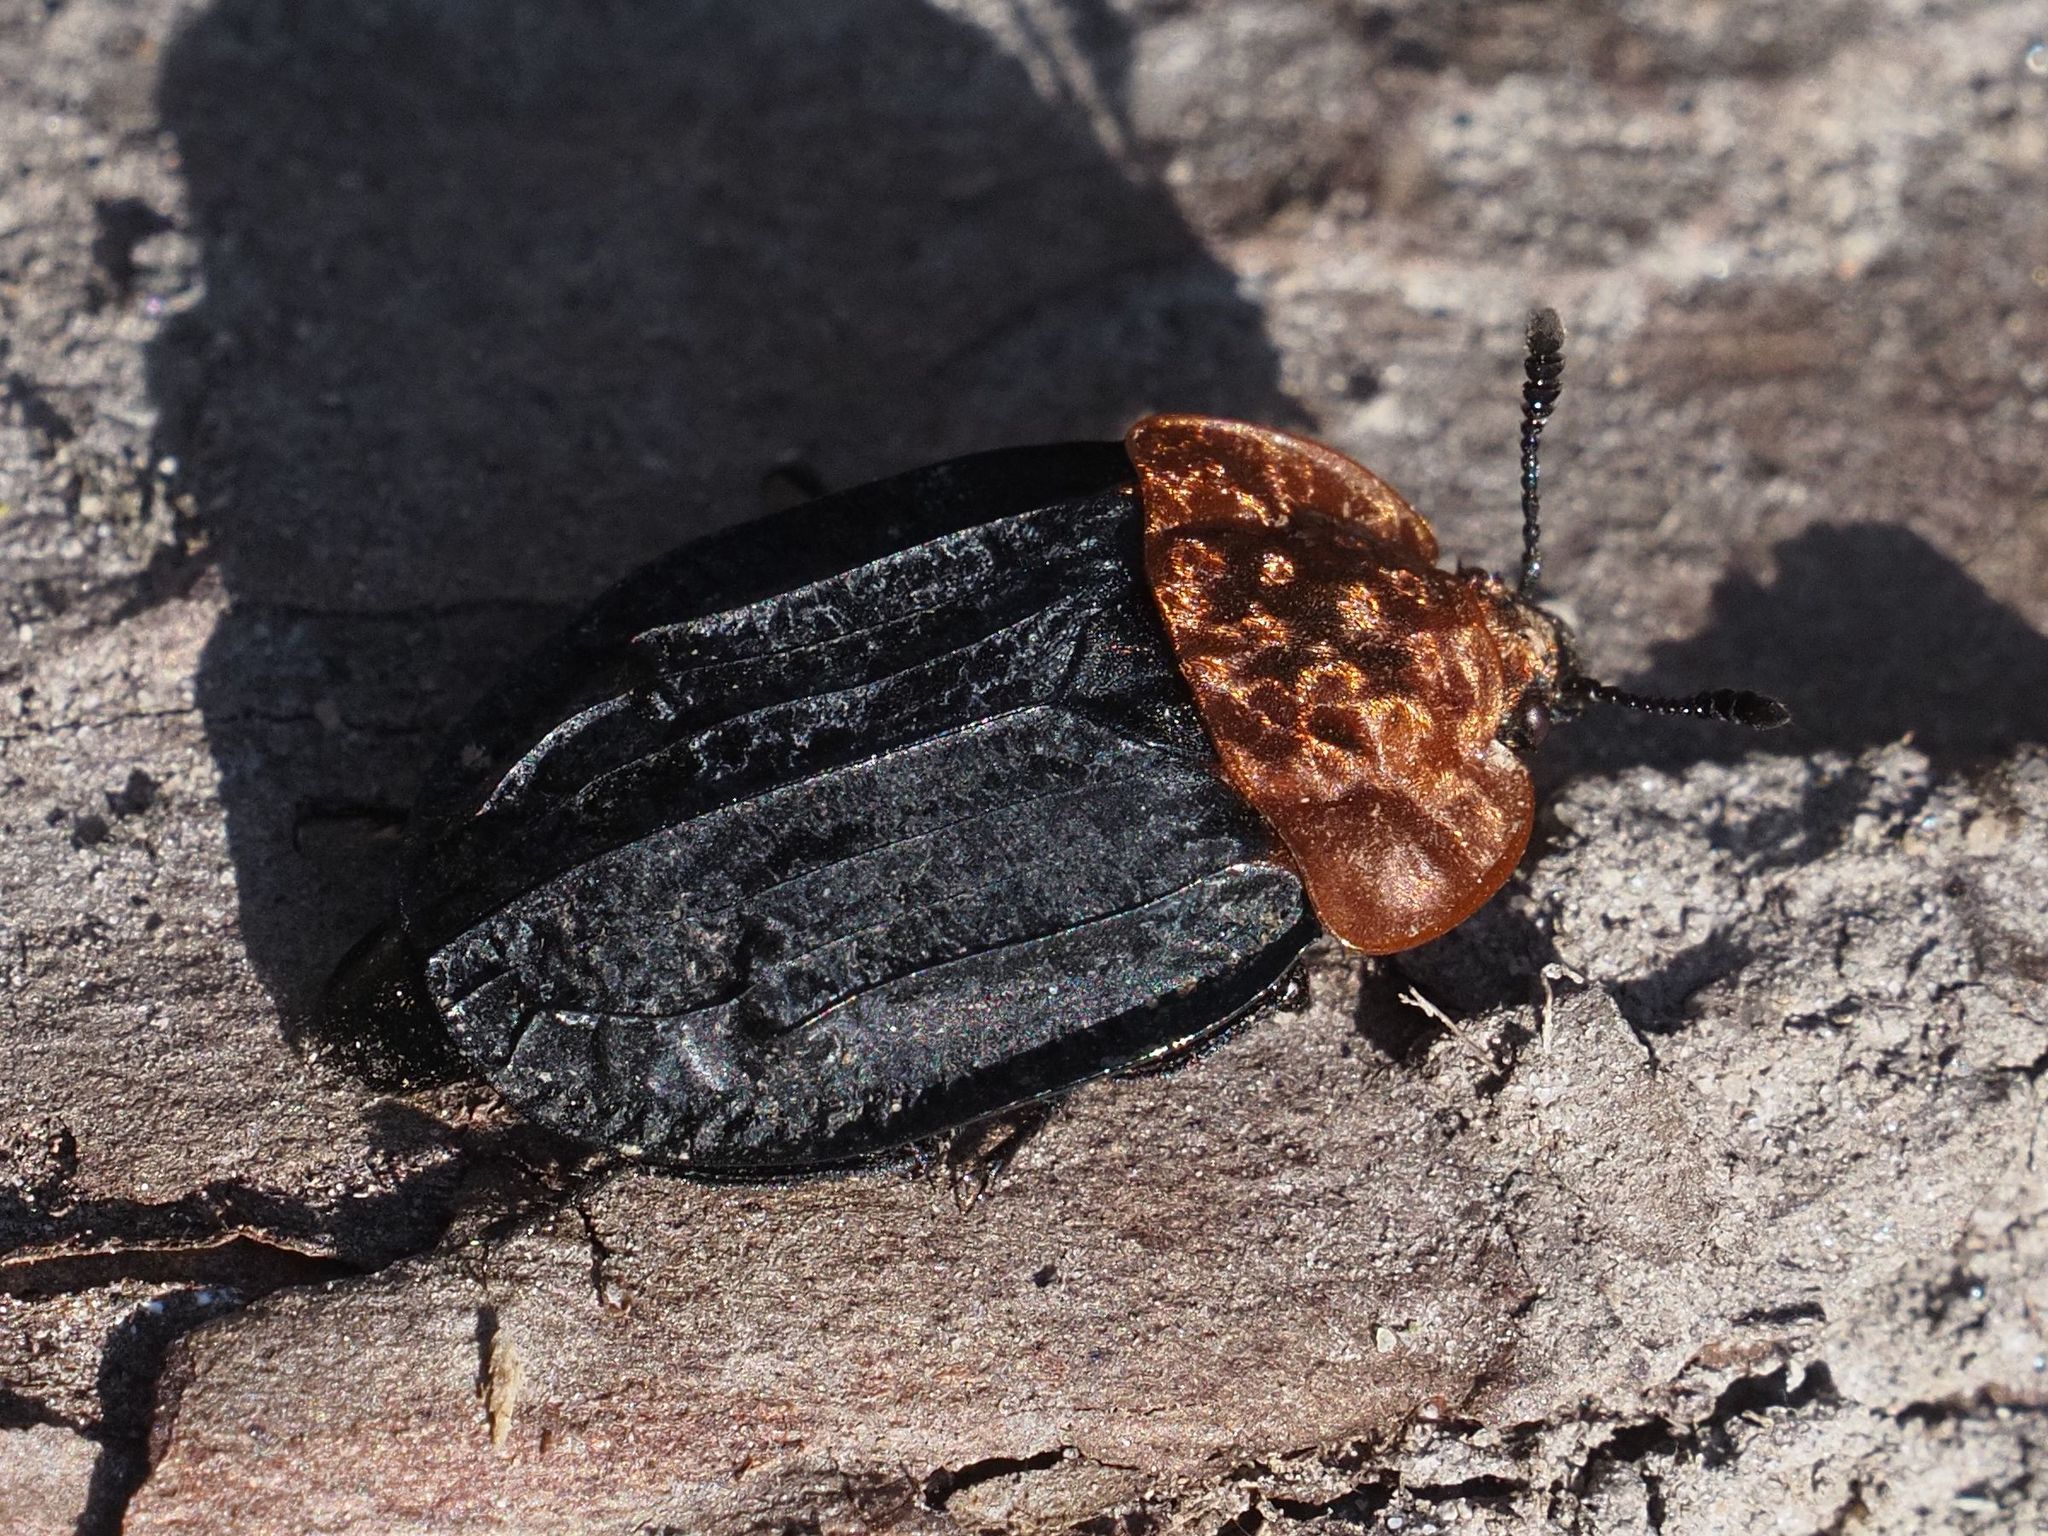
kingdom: Animalia
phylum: Arthropoda
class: Insecta
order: Coleoptera
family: Staphylinidae
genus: Oiceoptoma
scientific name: Oiceoptoma thoracicum
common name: Red-breasted carrion beetle
